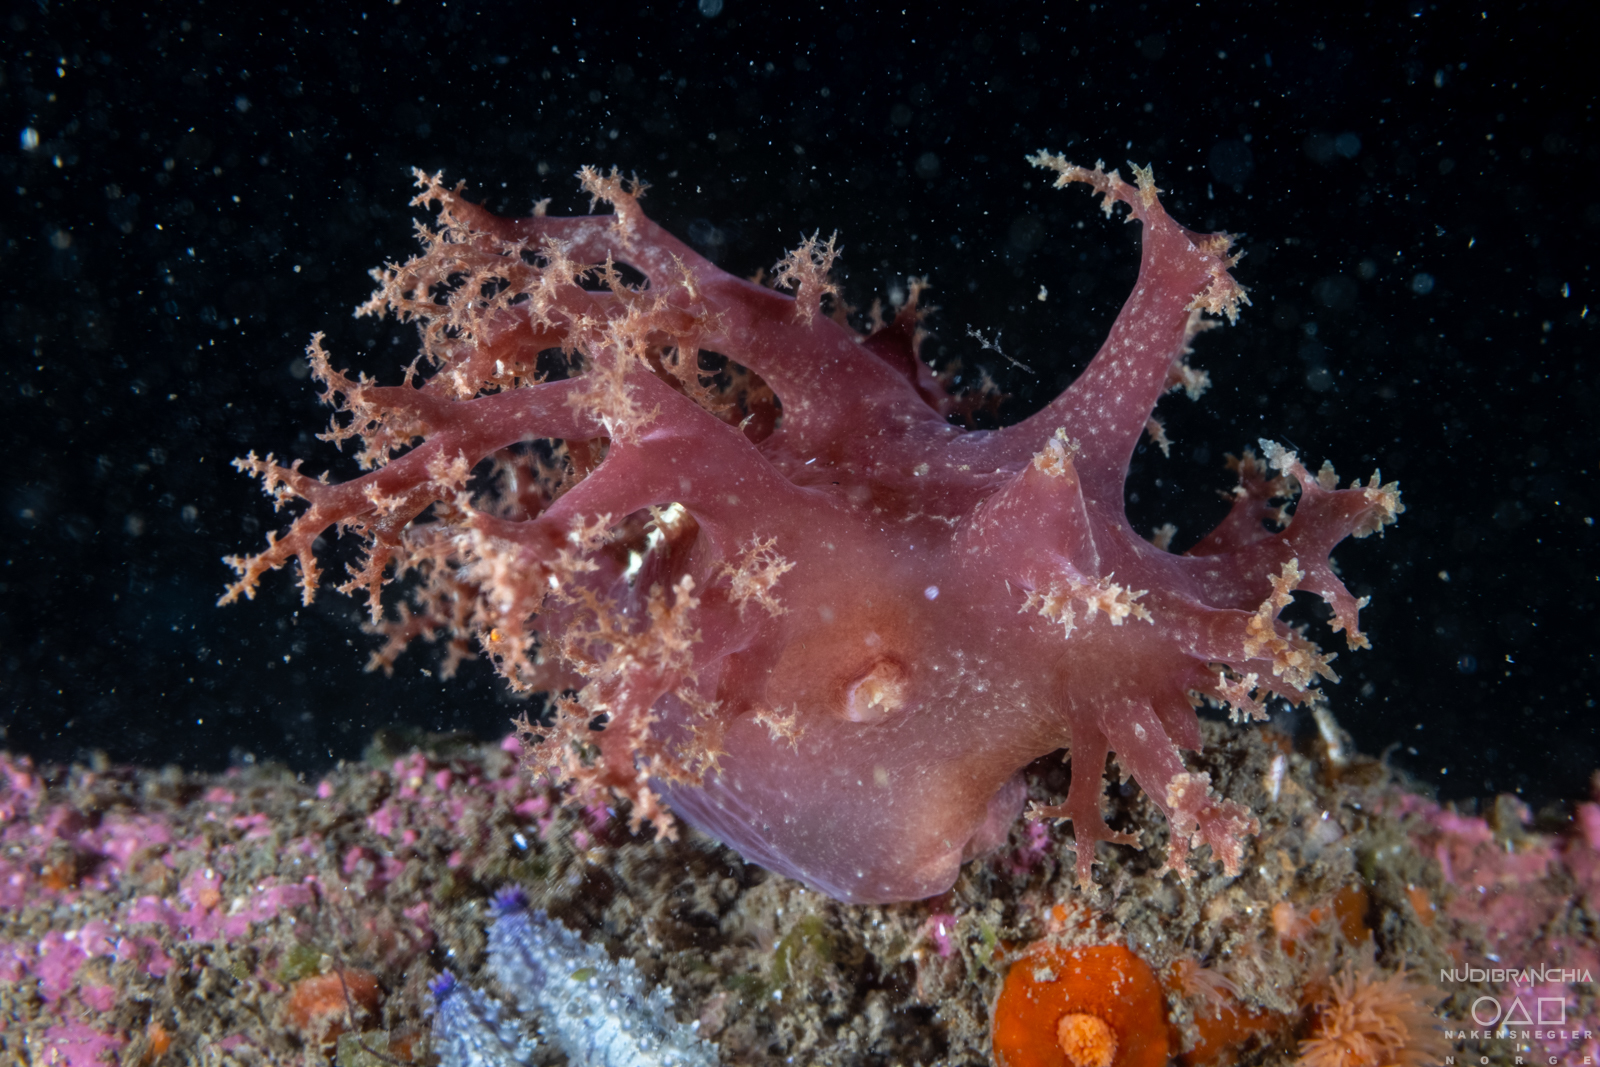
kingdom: Animalia
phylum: Mollusca
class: Gastropoda
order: Nudibranchia
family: Dendronotidae
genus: Dendronotus
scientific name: Dendronotus lacteus
